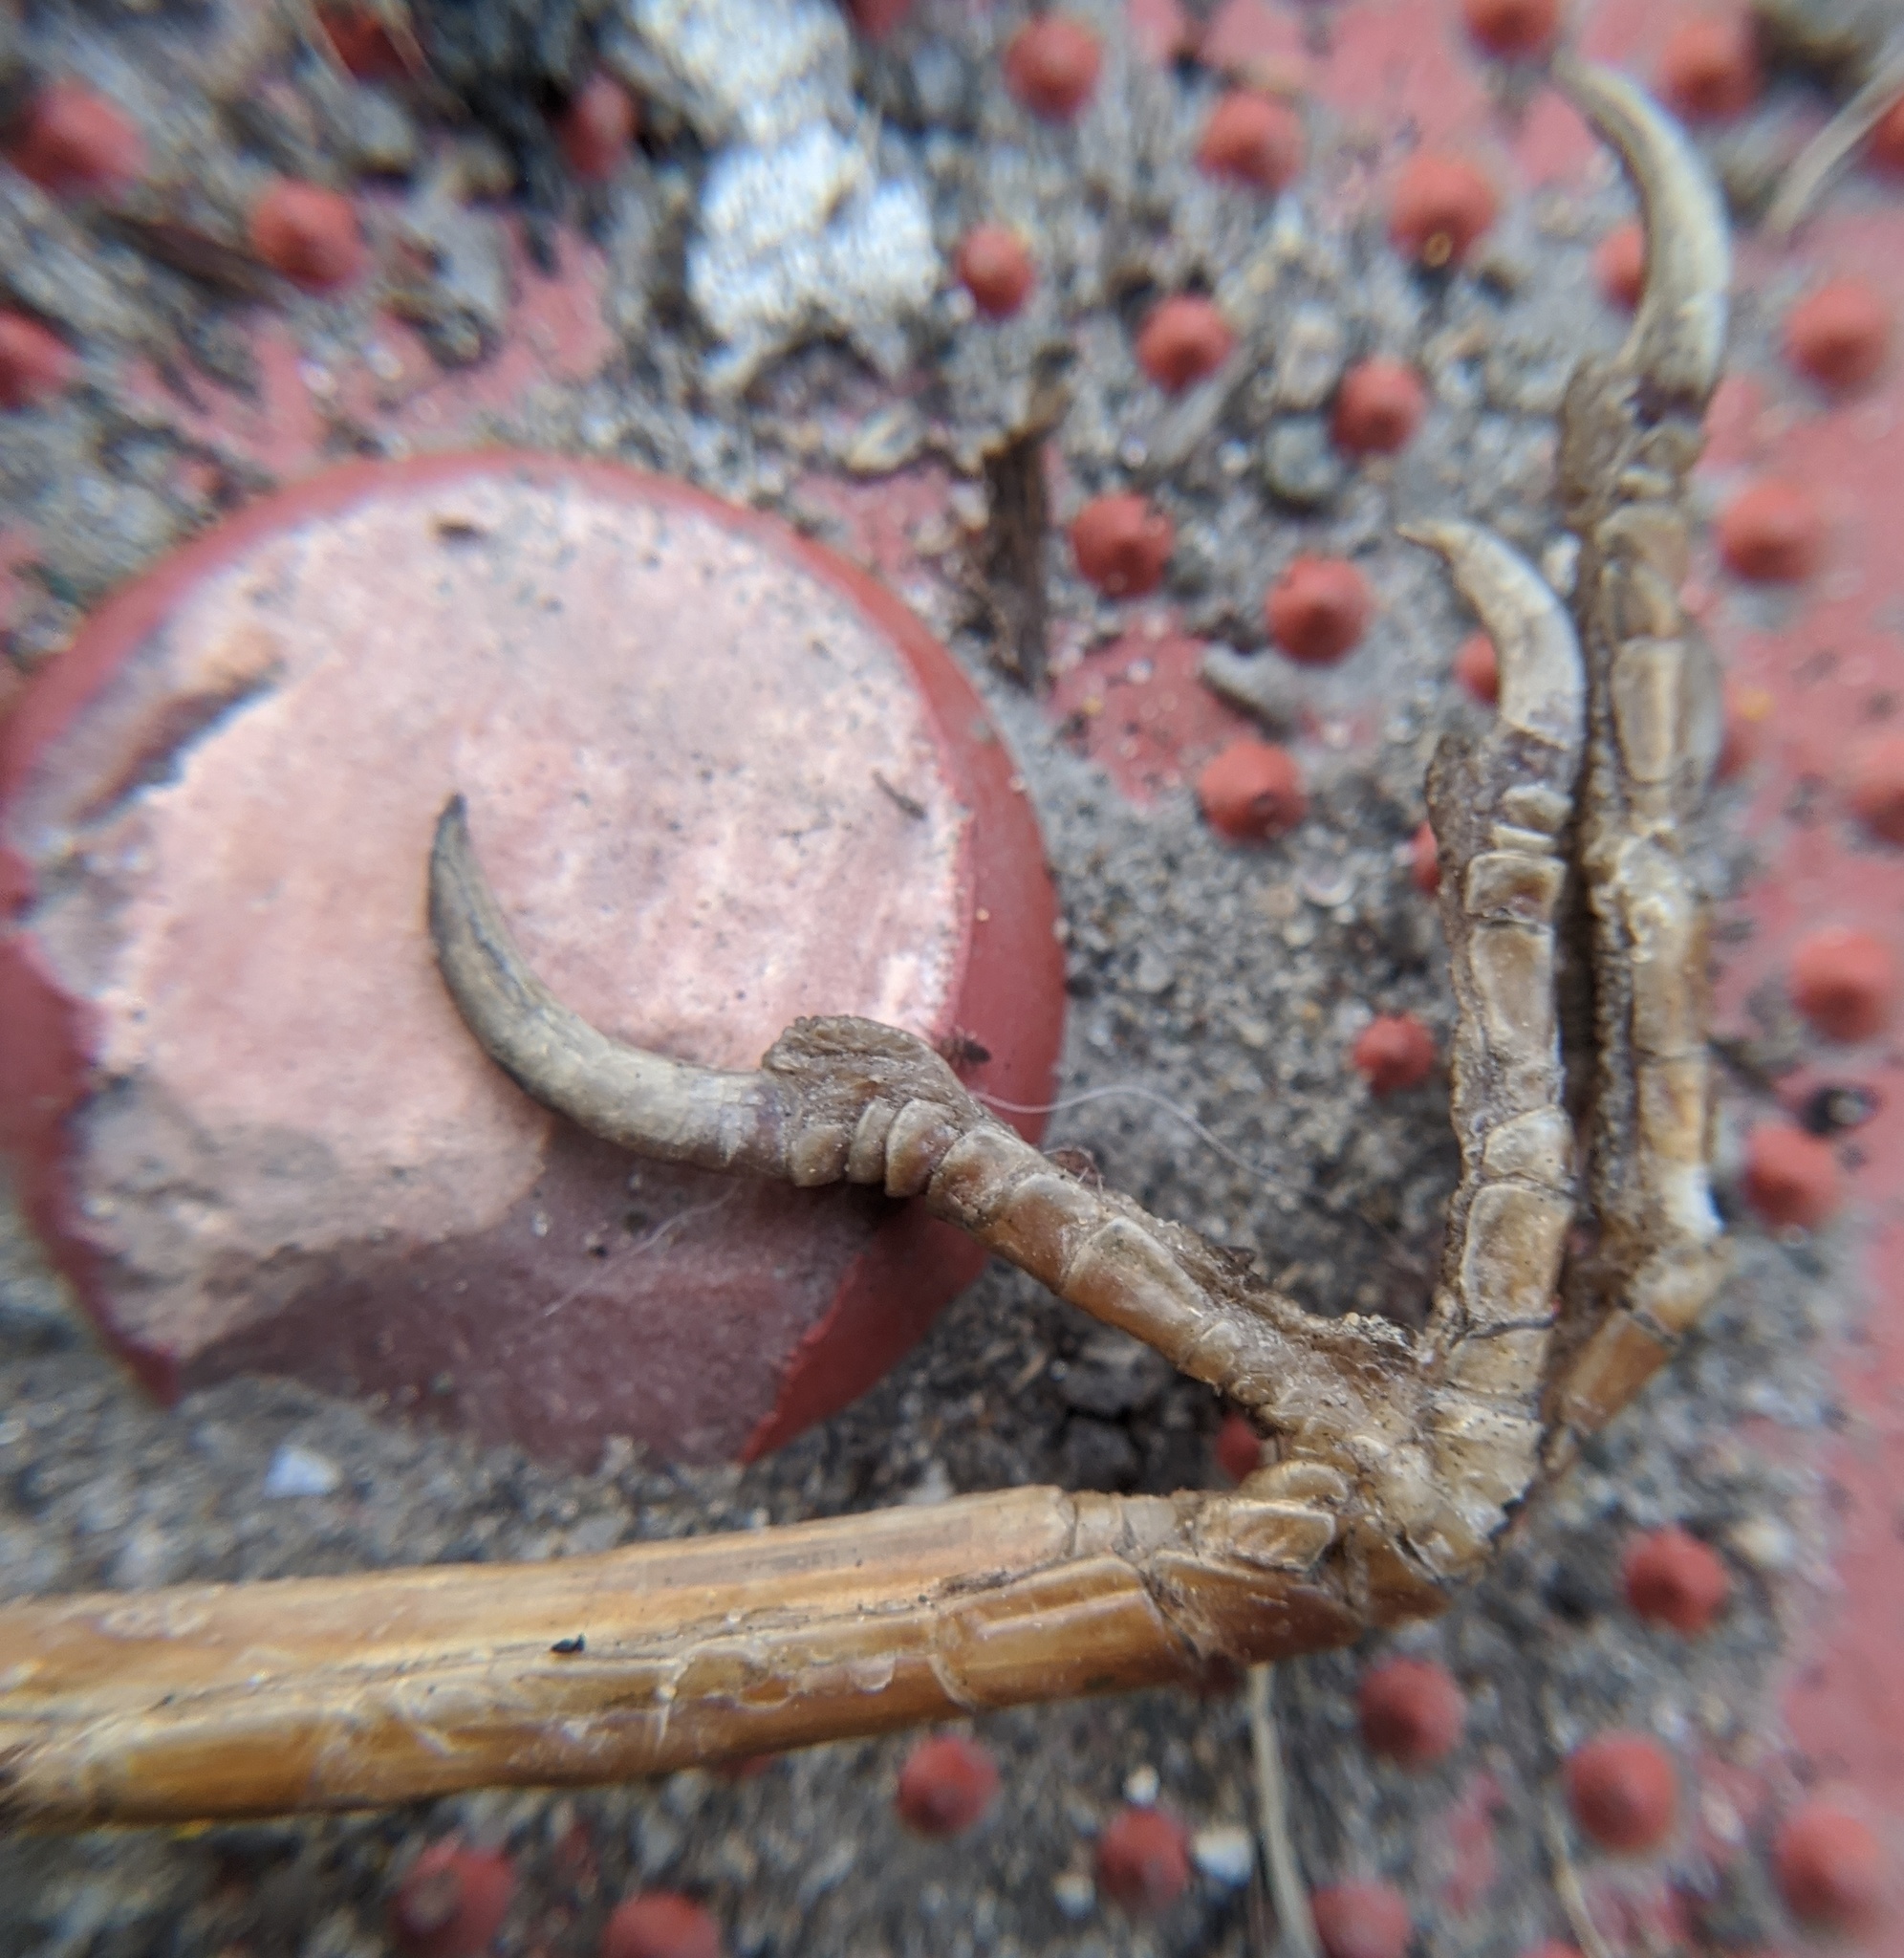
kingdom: Animalia
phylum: Chordata
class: Aves
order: Passeriformes
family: Sturnidae
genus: Sturnus
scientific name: Sturnus vulgaris
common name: Common starling
